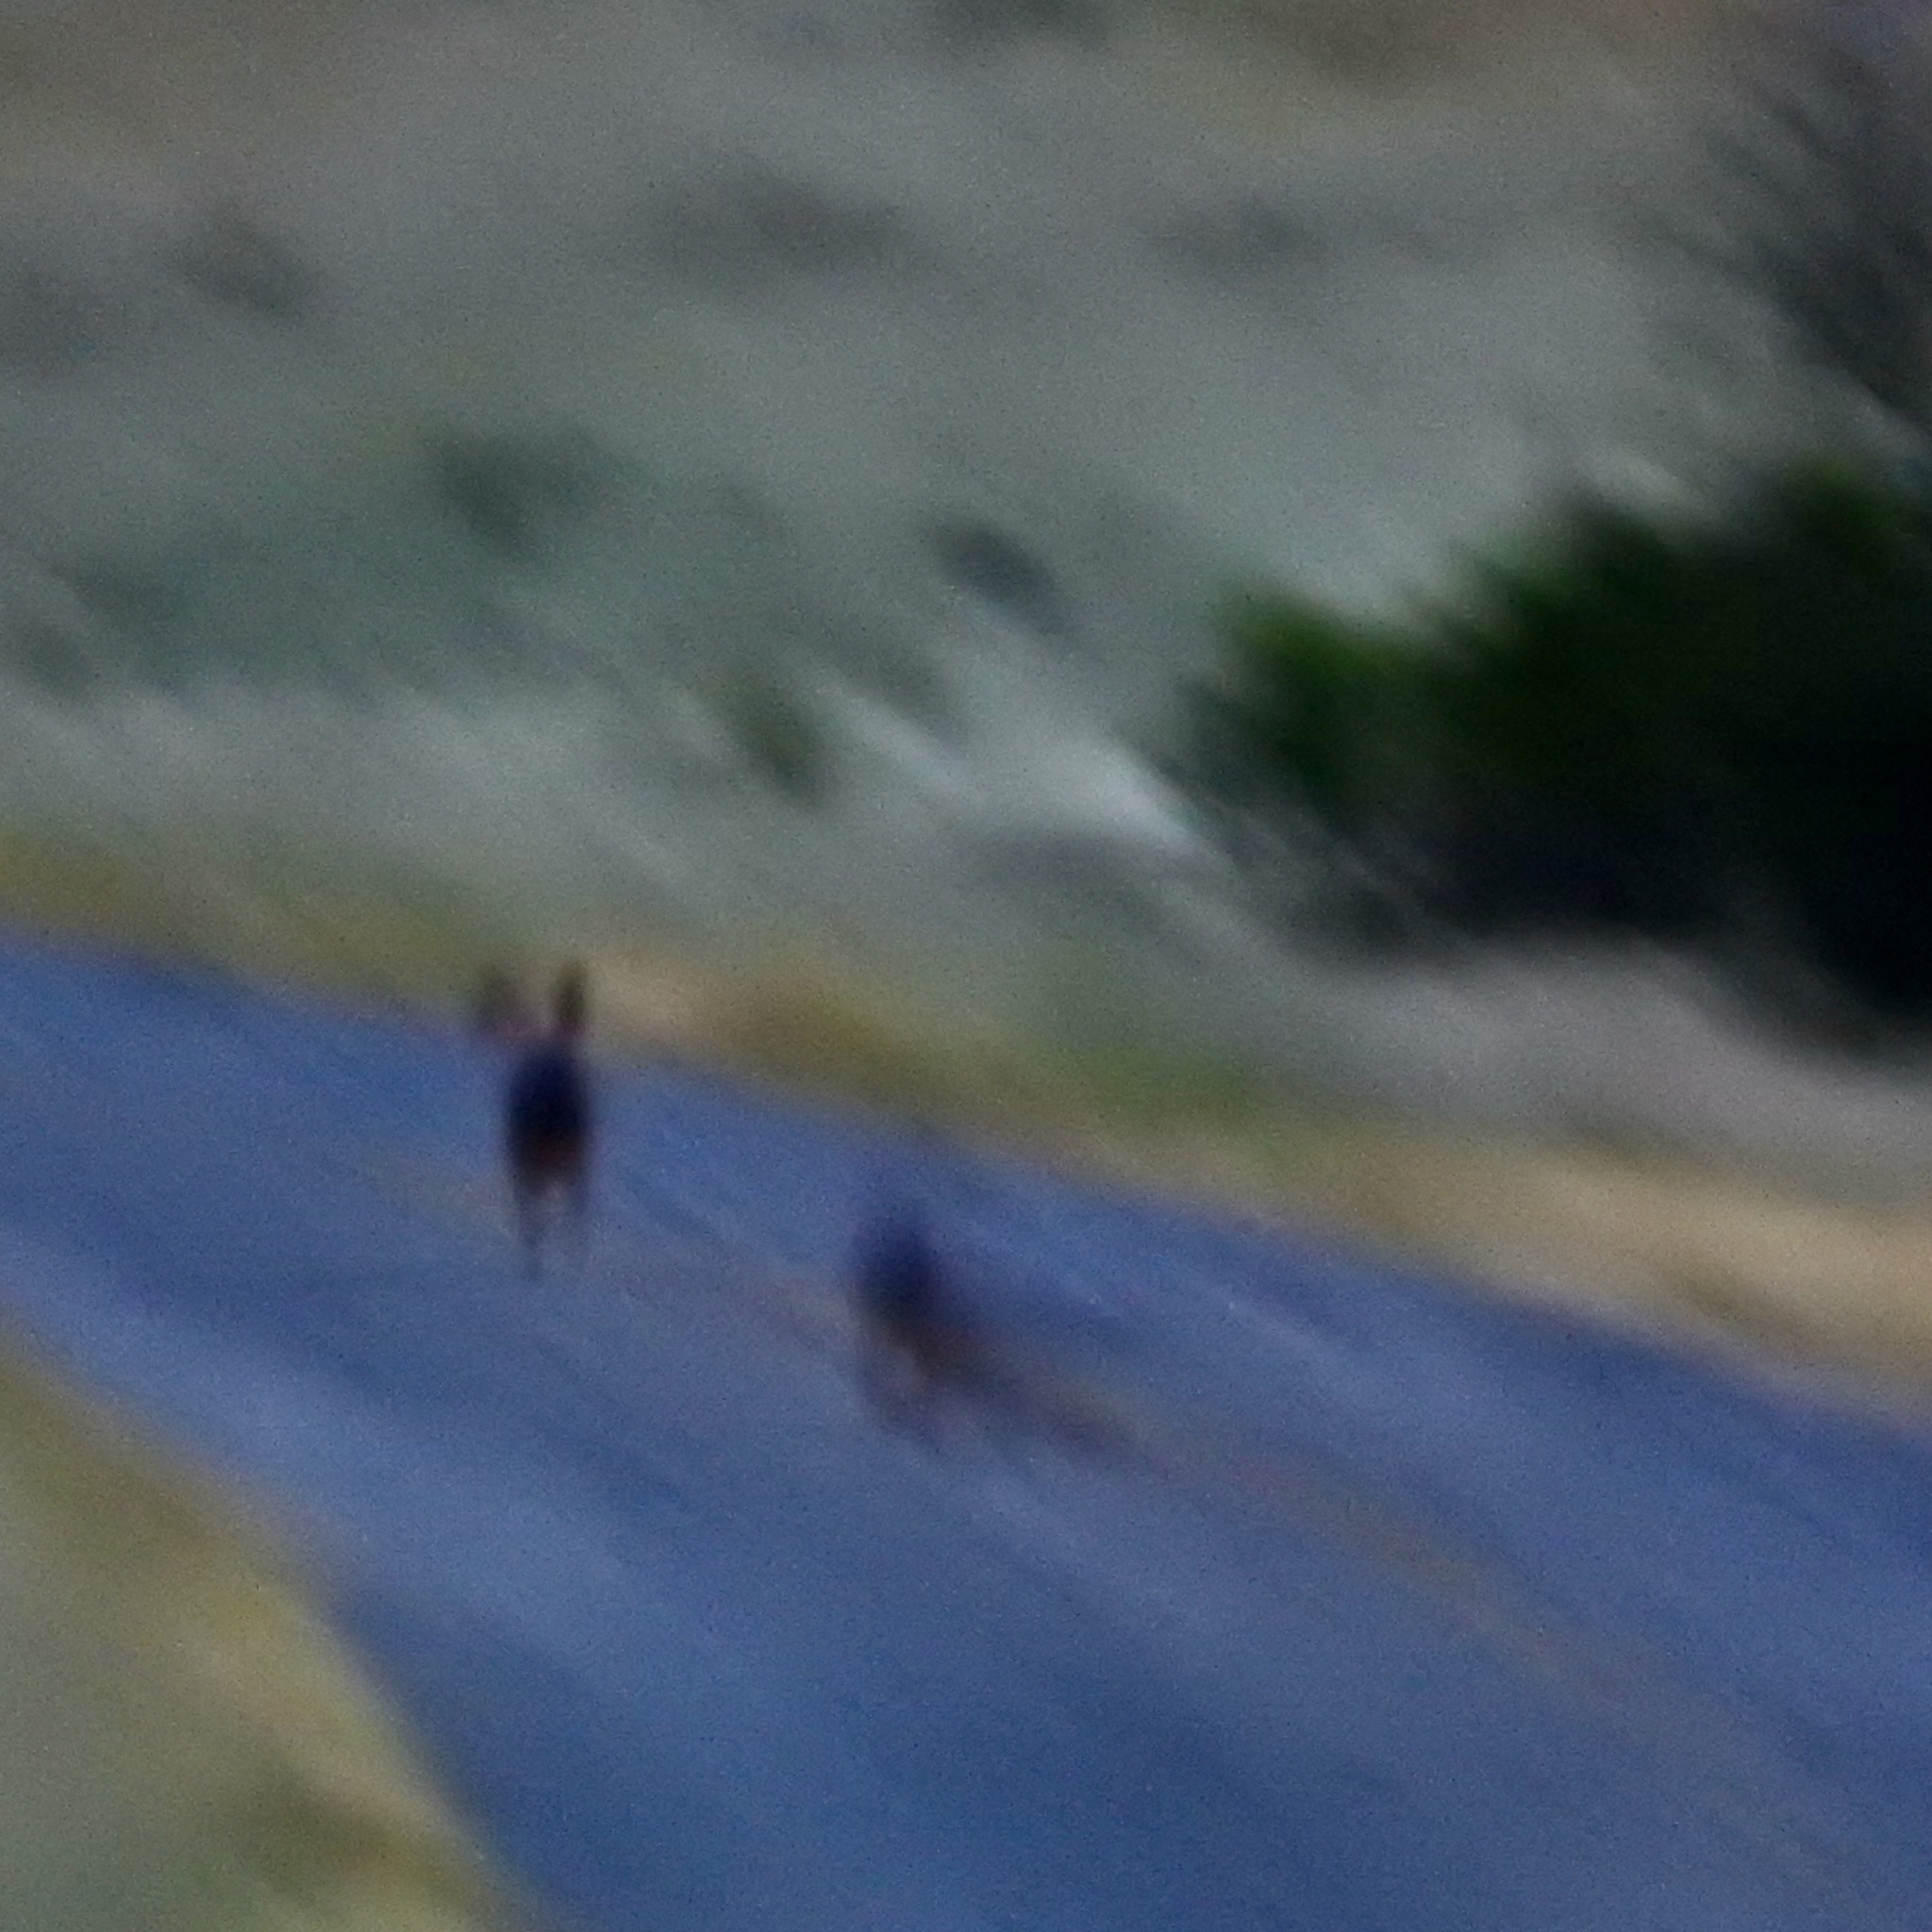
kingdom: Animalia
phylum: Chordata
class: Mammalia
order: Lagomorpha
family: Leporidae
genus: Lepus
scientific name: Lepus californicus
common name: Black-tailed jackrabbit
